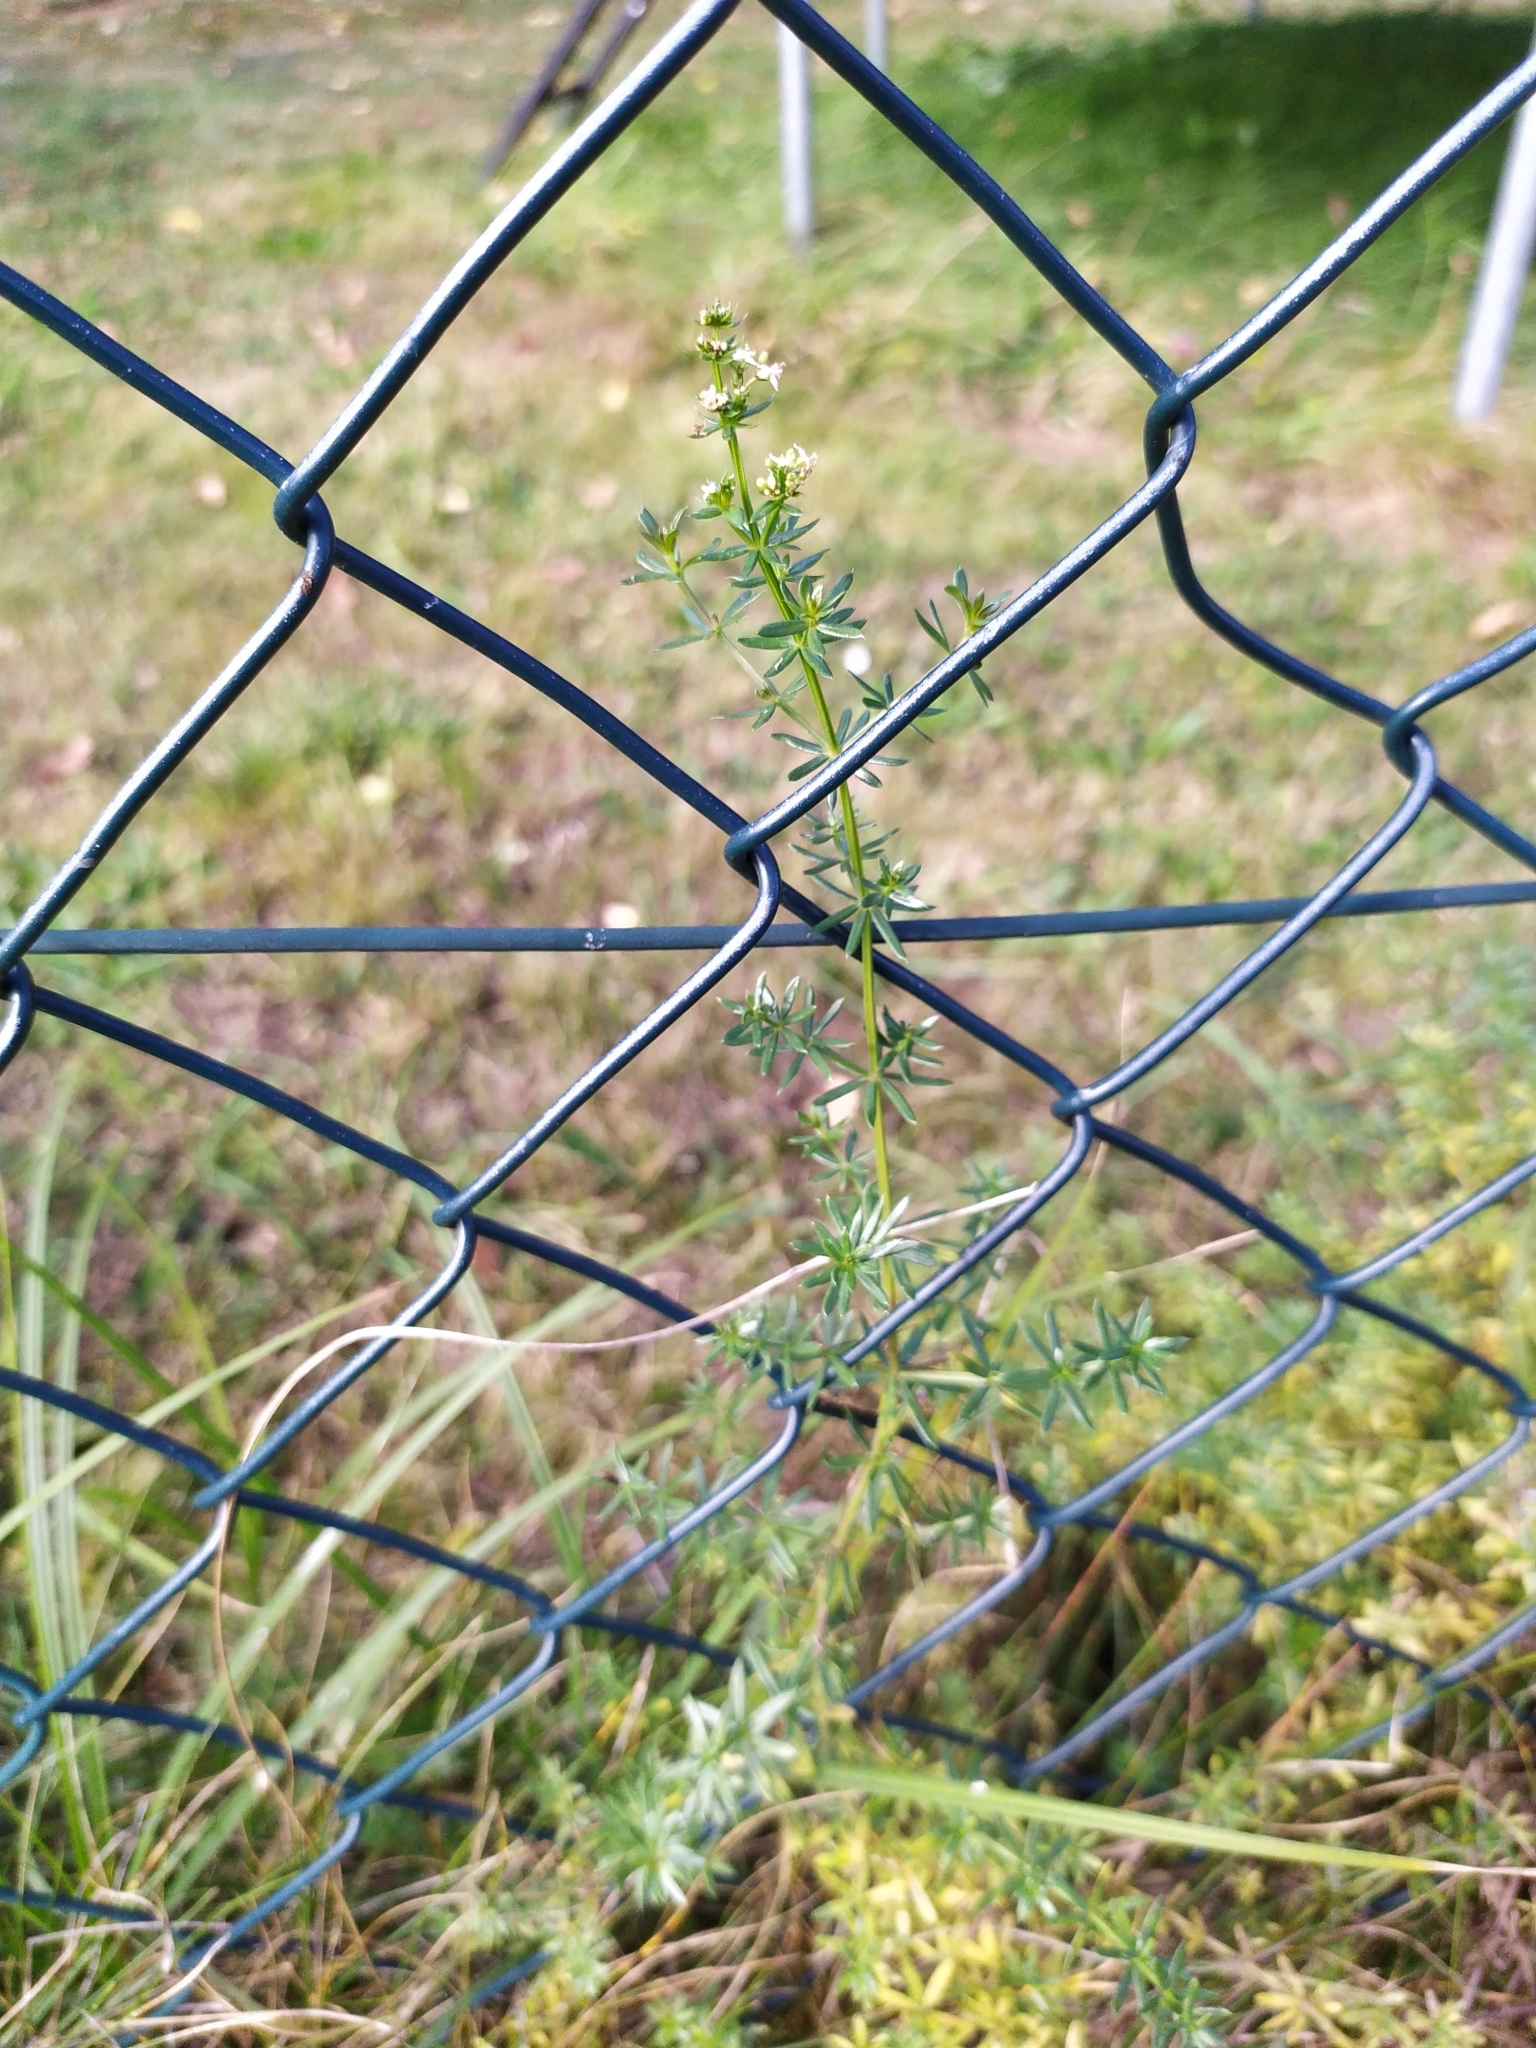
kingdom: Plantae
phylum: Tracheophyta
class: Magnoliopsida
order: Gentianales
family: Rubiaceae
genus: Galium
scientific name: Galium album
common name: White bedstraw
